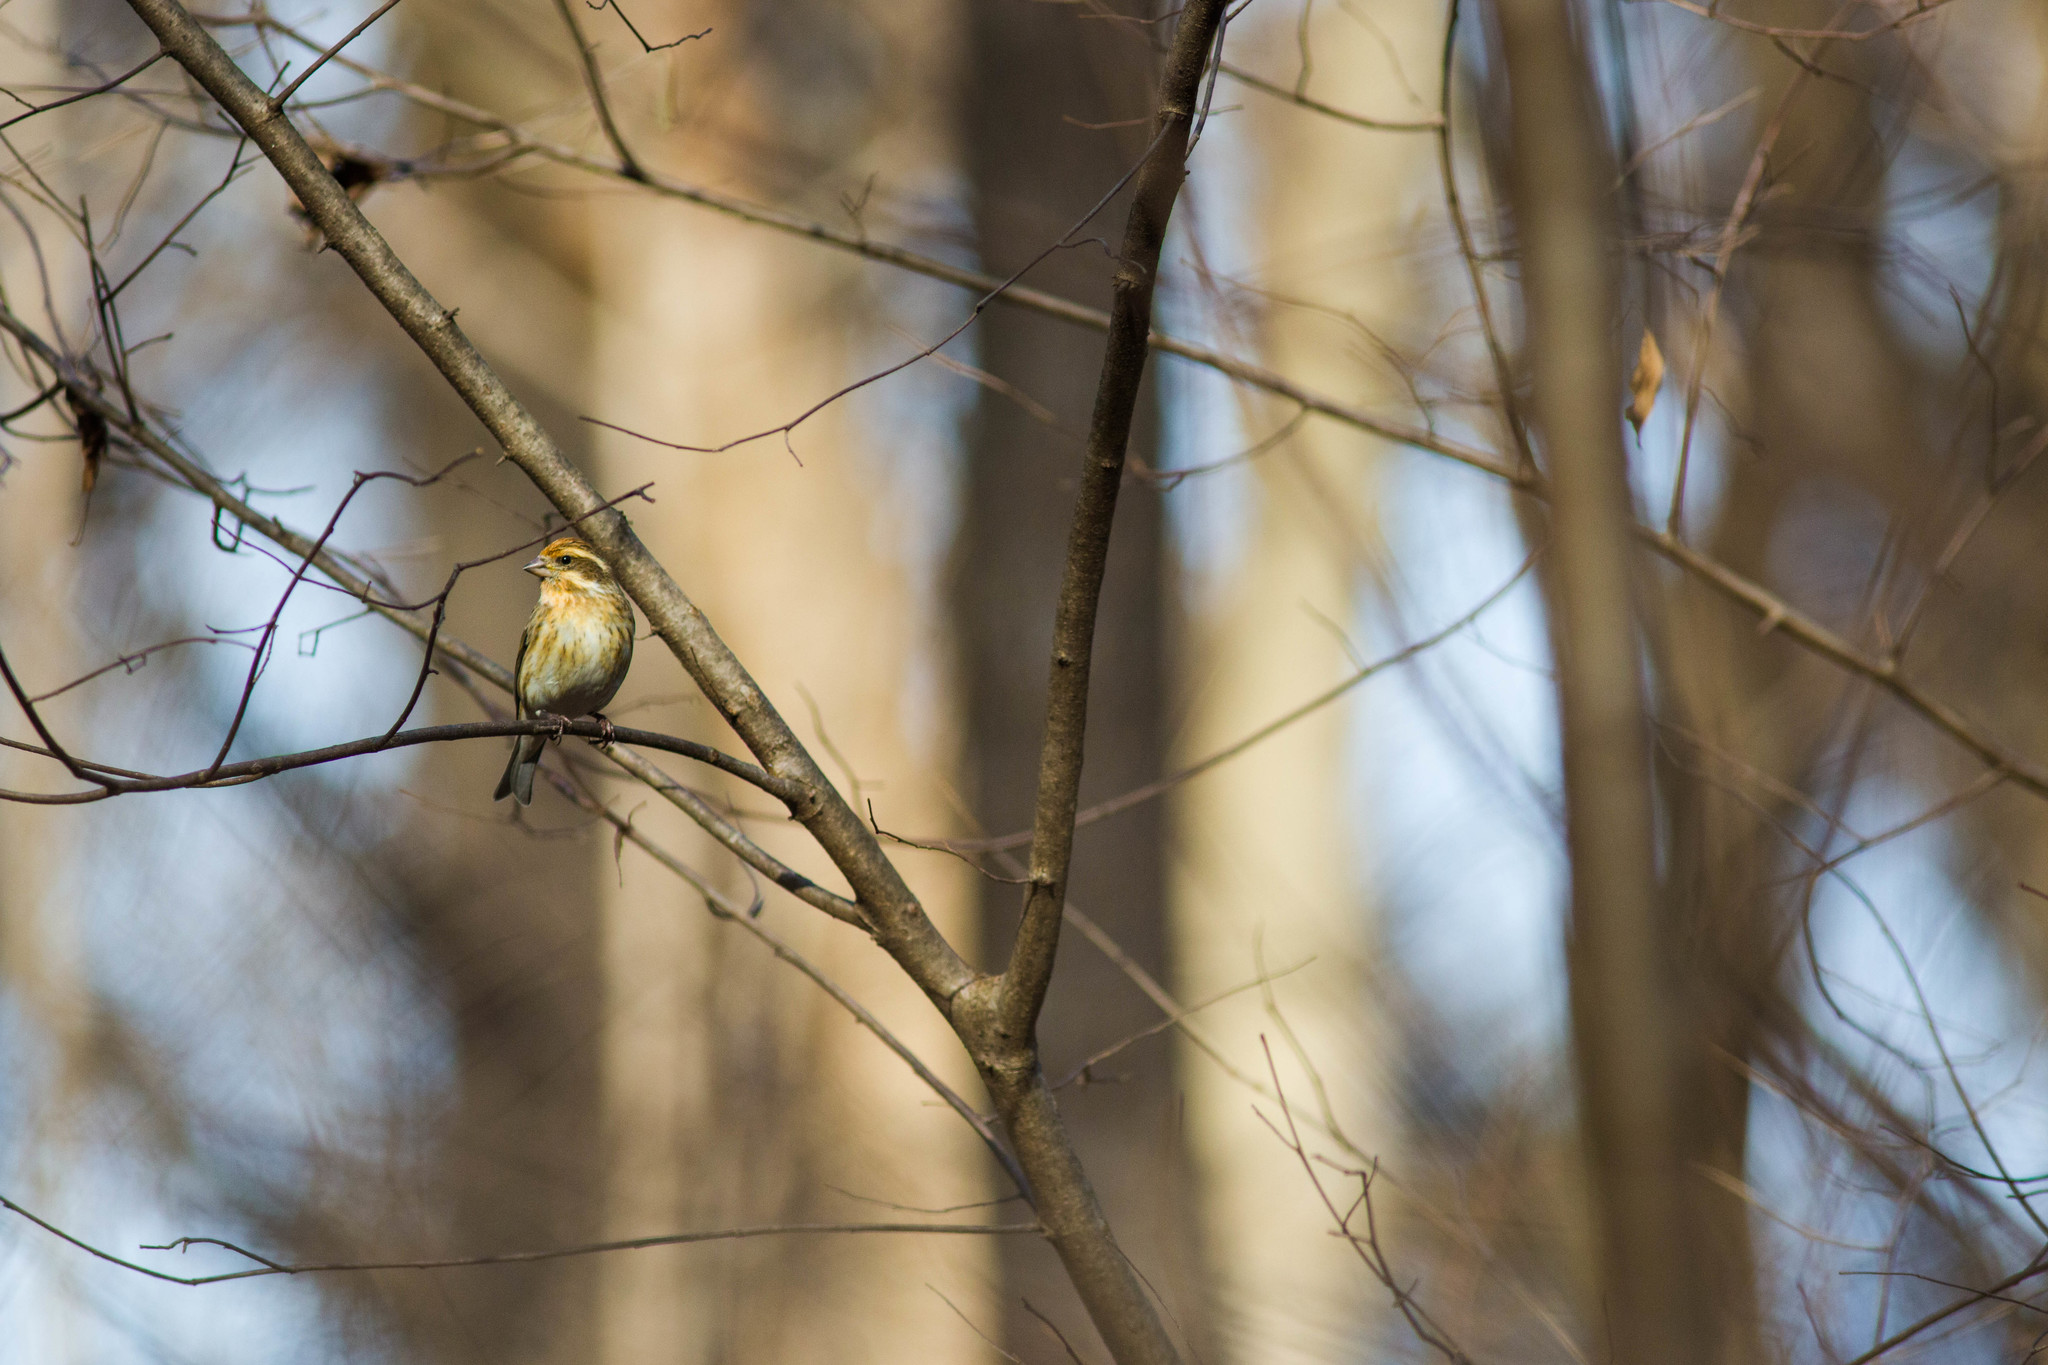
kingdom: Animalia
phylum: Chordata
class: Aves
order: Passeriformes
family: Fringillidae
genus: Haemorhous
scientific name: Haemorhous purpureus
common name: Purple finch
